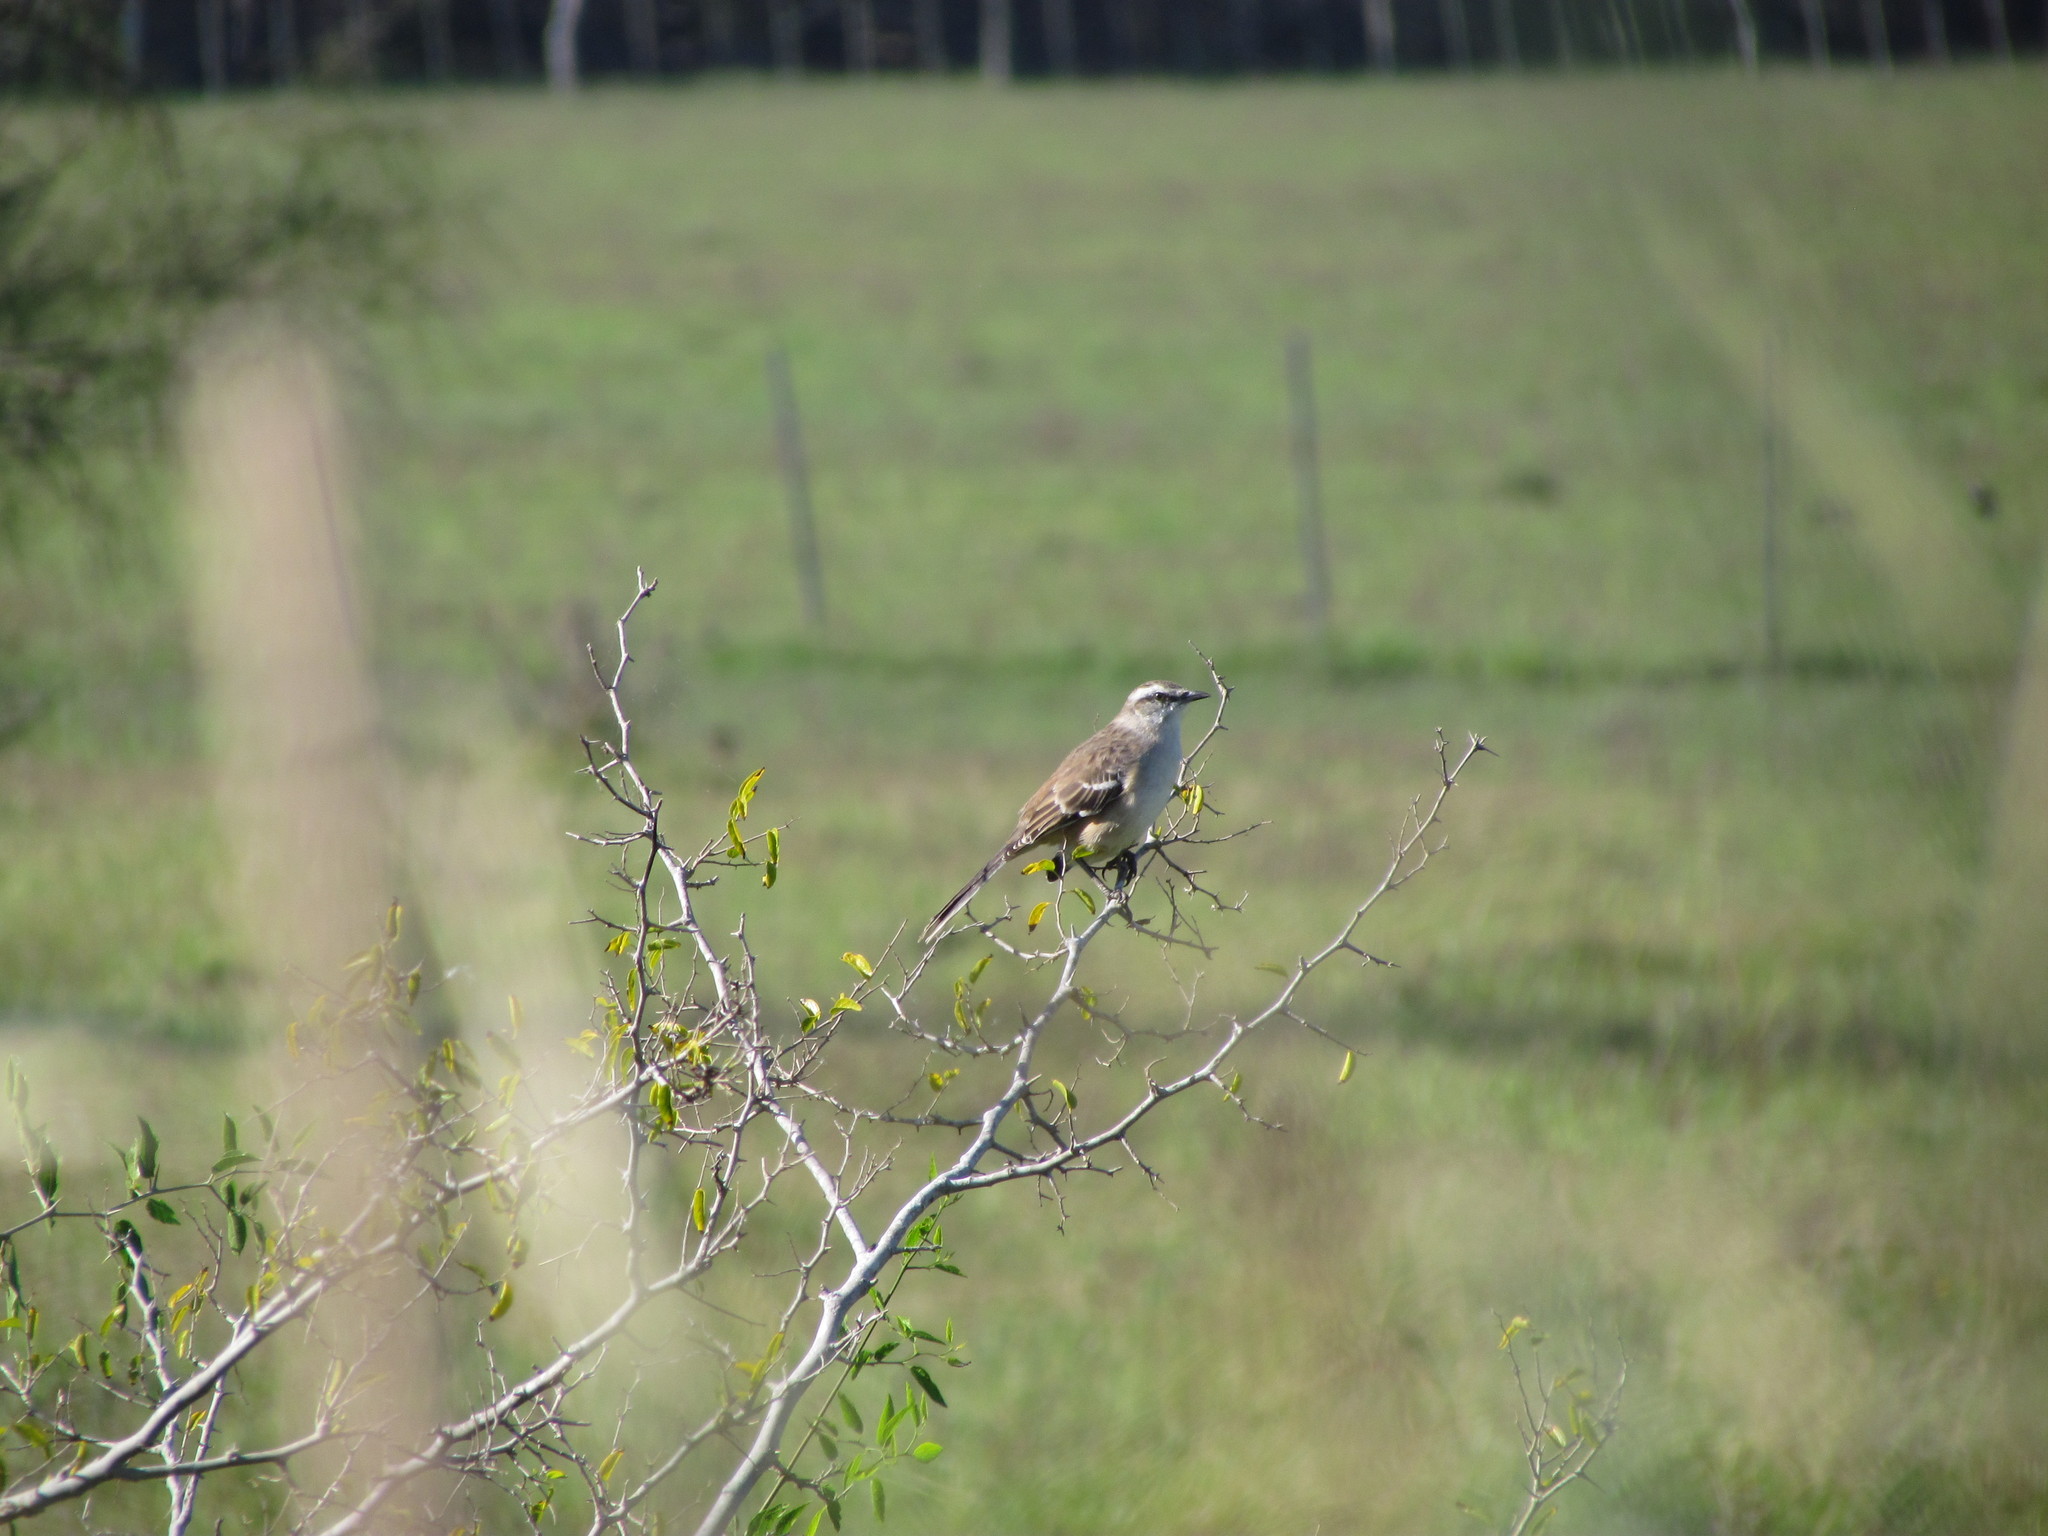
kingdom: Animalia
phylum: Chordata
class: Aves
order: Passeriformes
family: Mimidae
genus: Mimus
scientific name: Mimus saturninus
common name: Chalk-browed mockingbird
